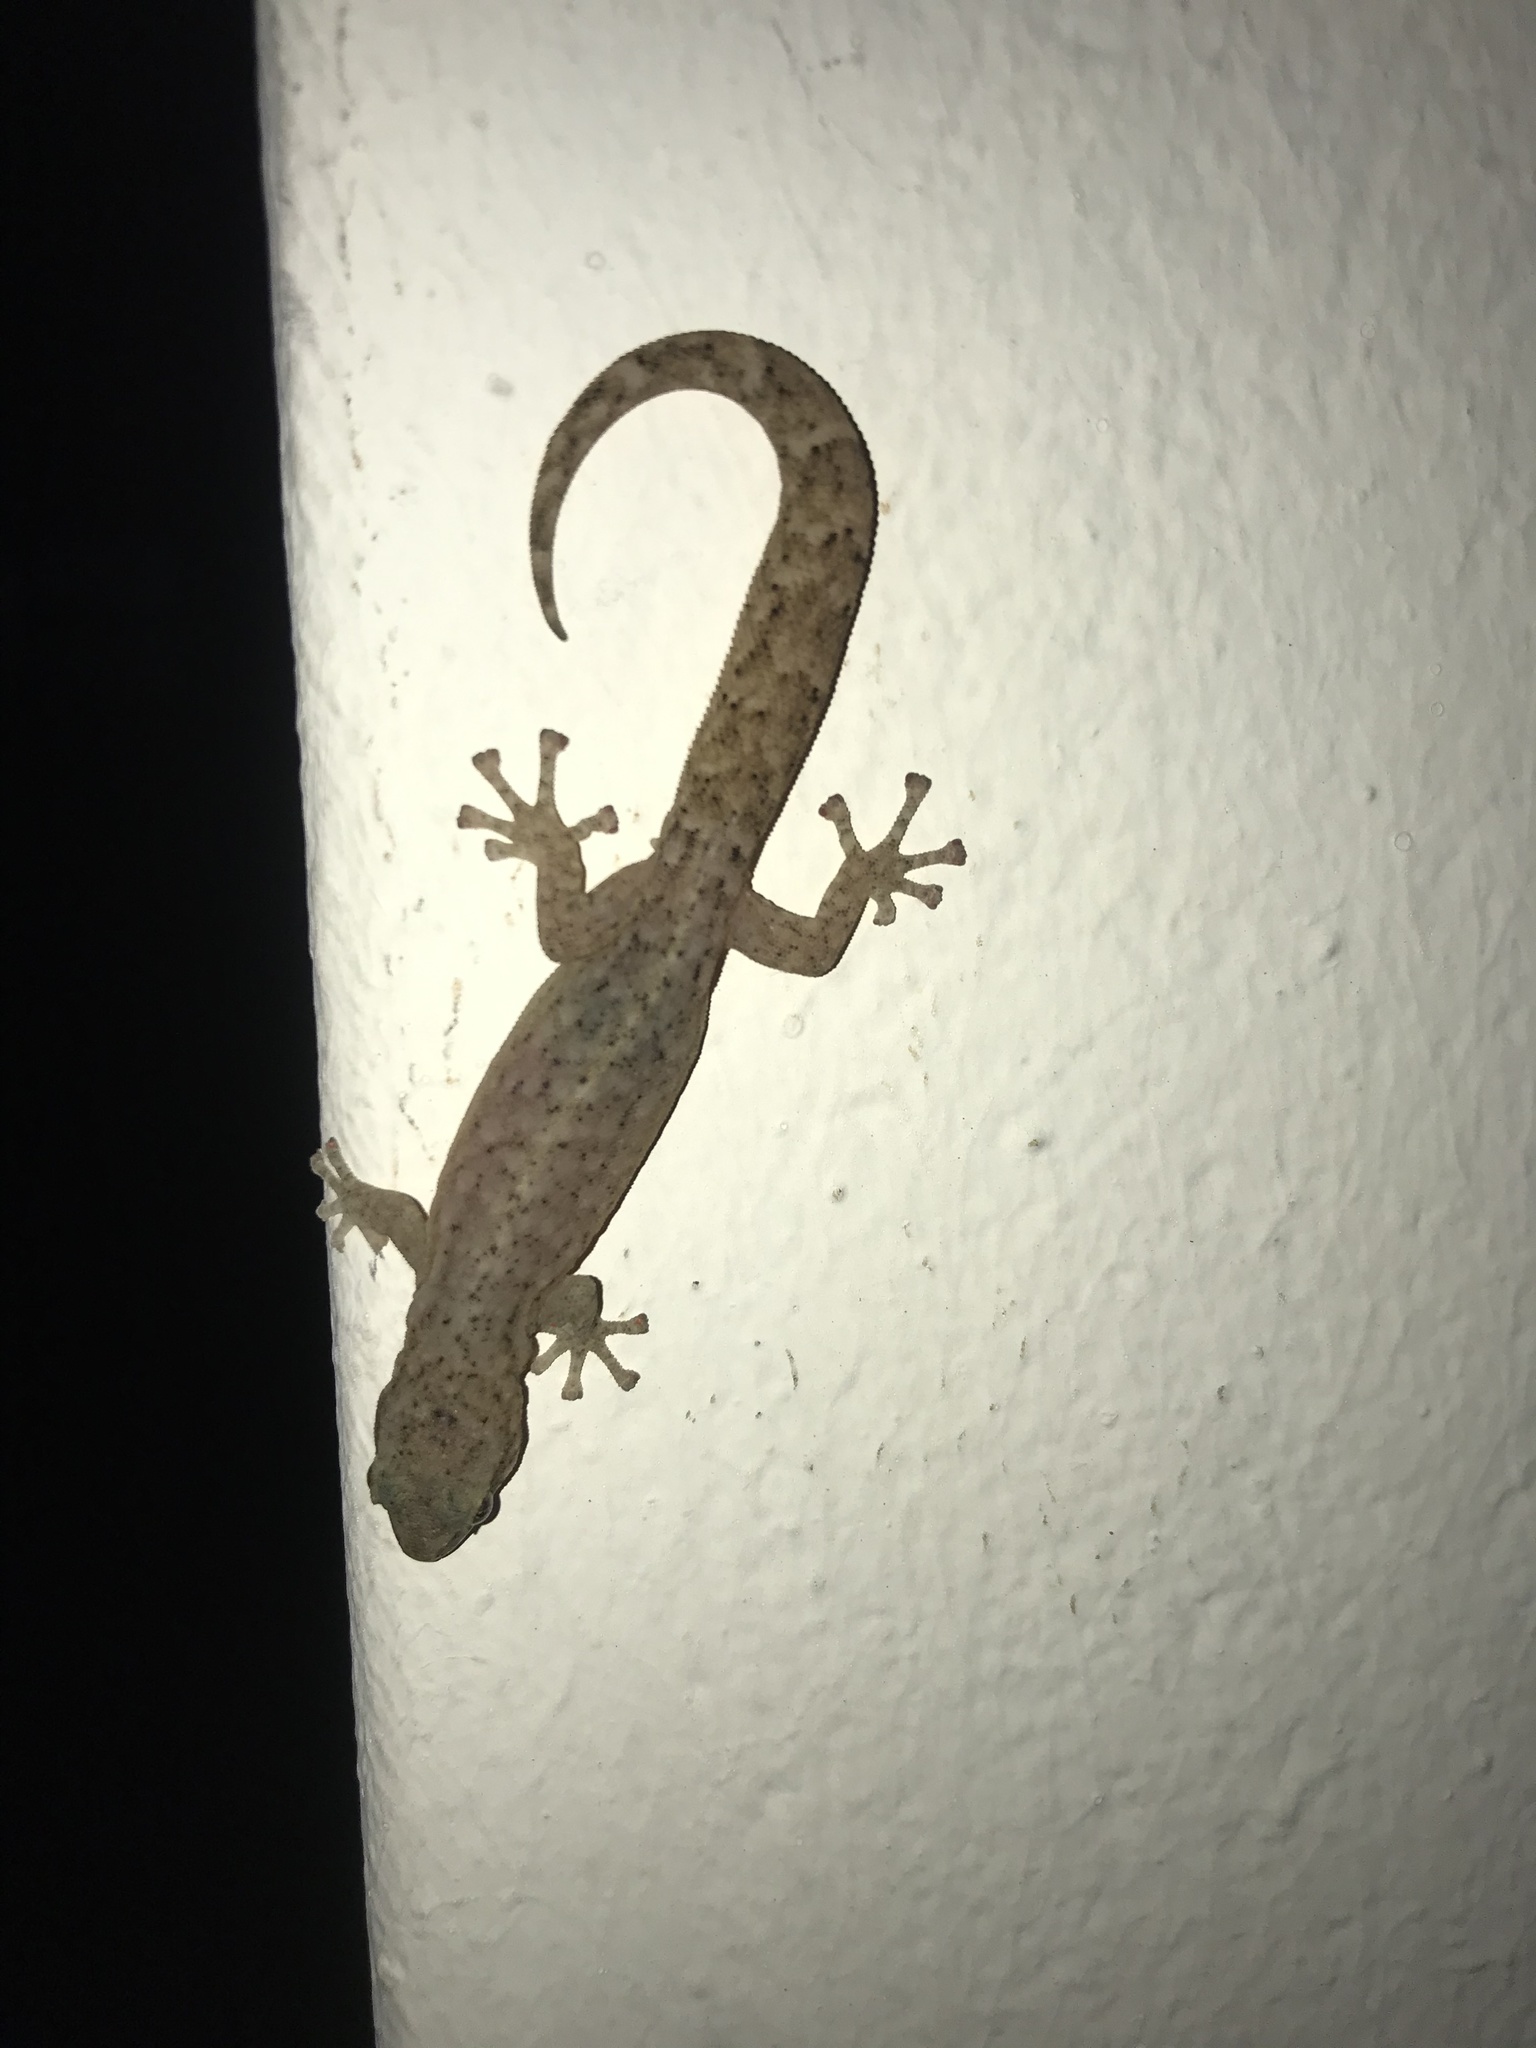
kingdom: Animalia
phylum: Chordata
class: Squamata
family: Gekkonidae
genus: Afrogecko
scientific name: Afrogecko porphyreus
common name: Marbled leaf-toed gecko
